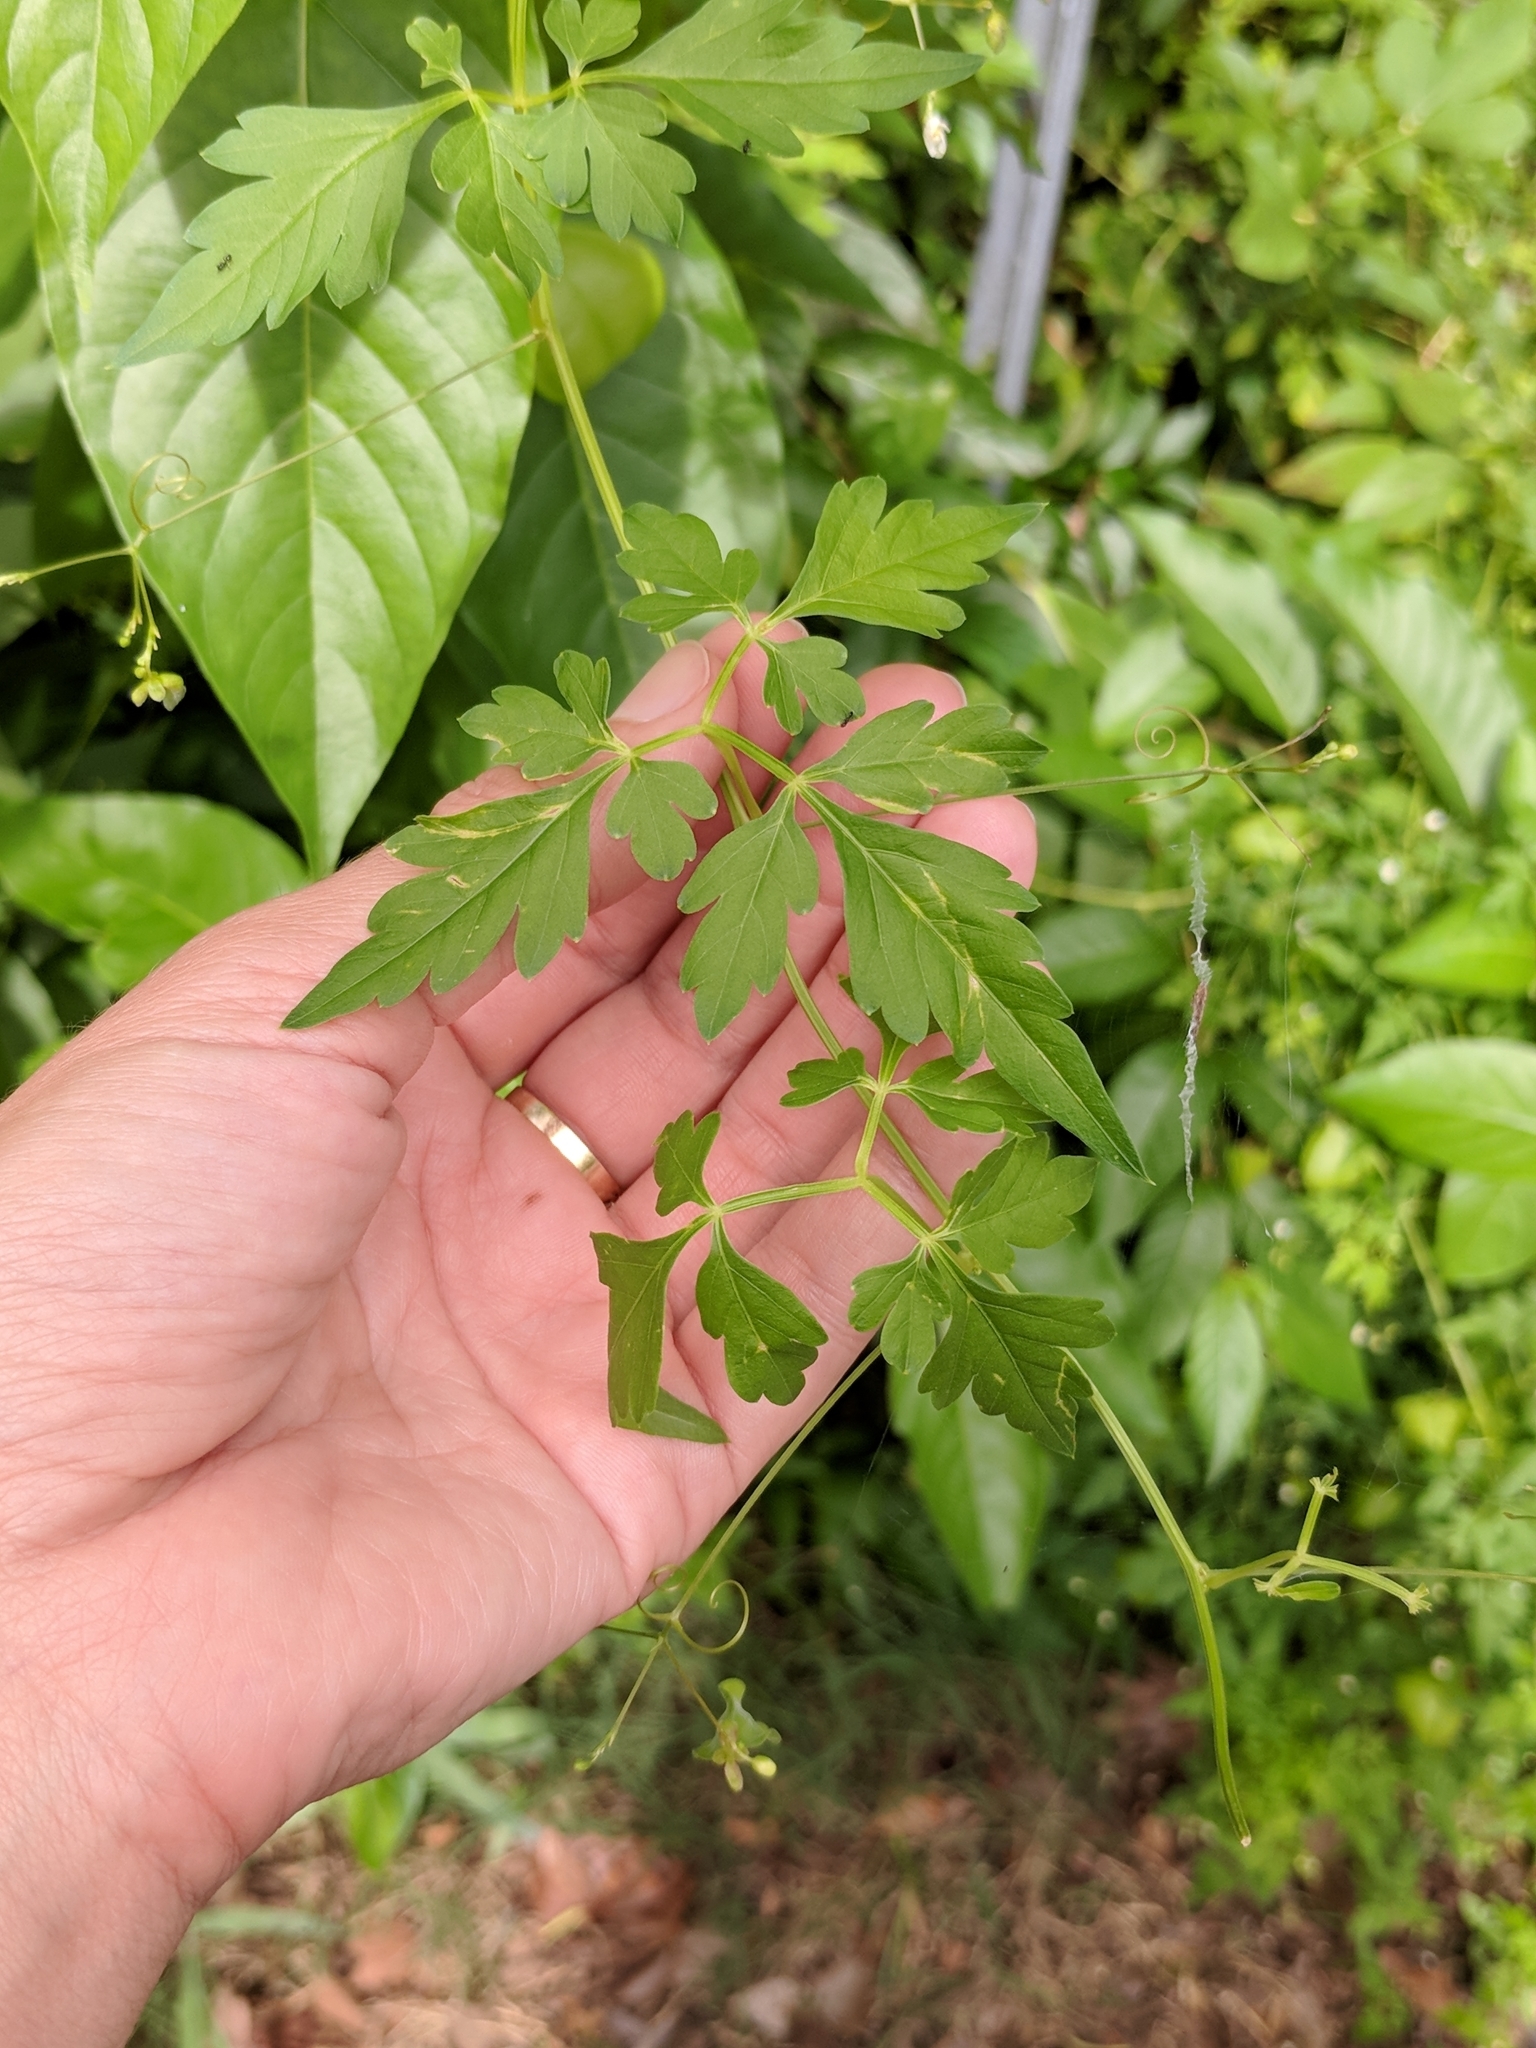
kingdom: Plantae
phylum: Tracheophyta
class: Magnoliopsida
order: Sapindales
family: Sapindaceae
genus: Cardiospermum
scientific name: Cardiospermum halicacabum
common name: Balloon vine
